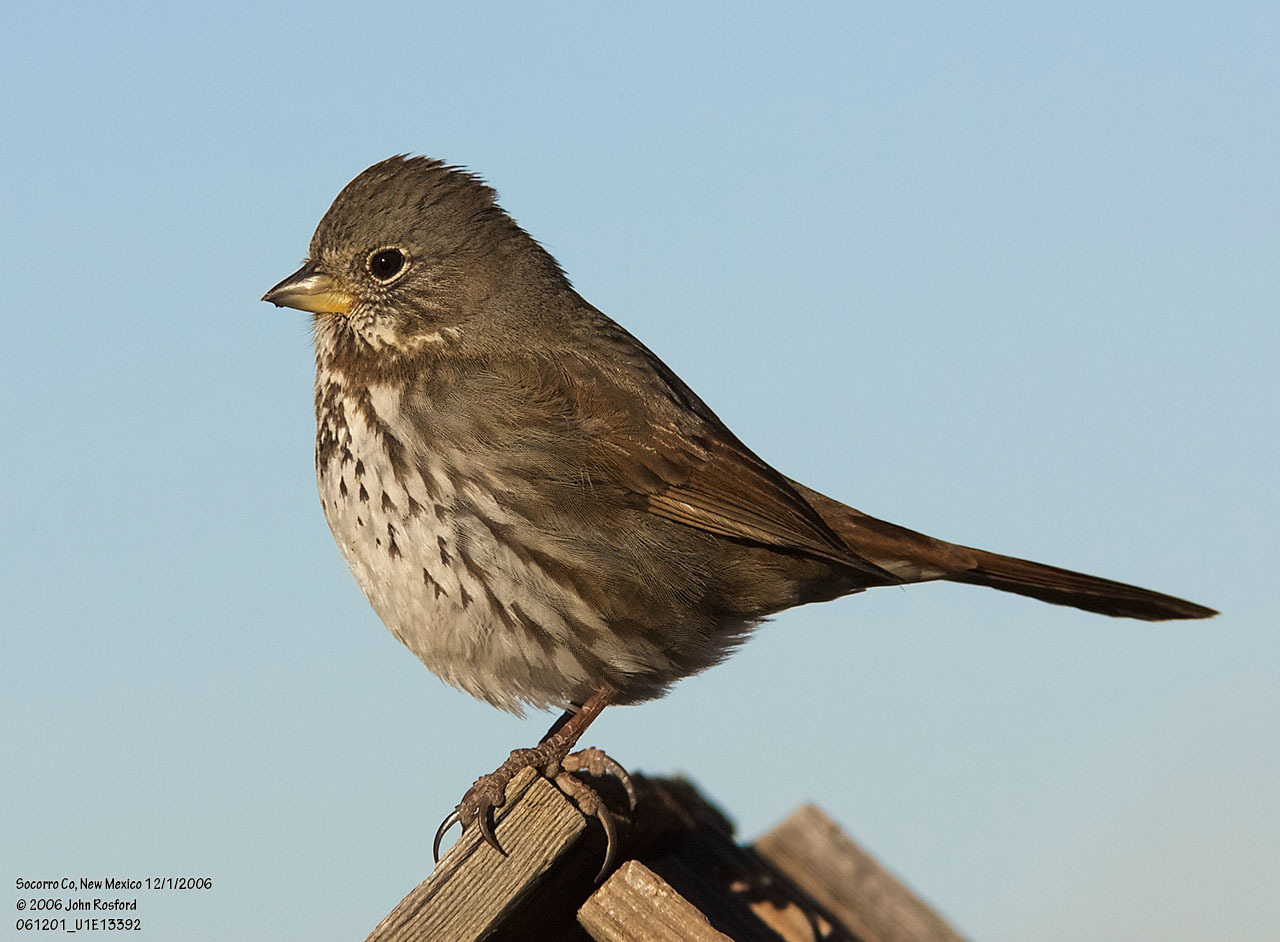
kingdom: Animalia
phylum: Chordata
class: Aves
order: Passeriformes
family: Passerellidae
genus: Passerella
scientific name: Passerella iliaca
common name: Fox sparrow
